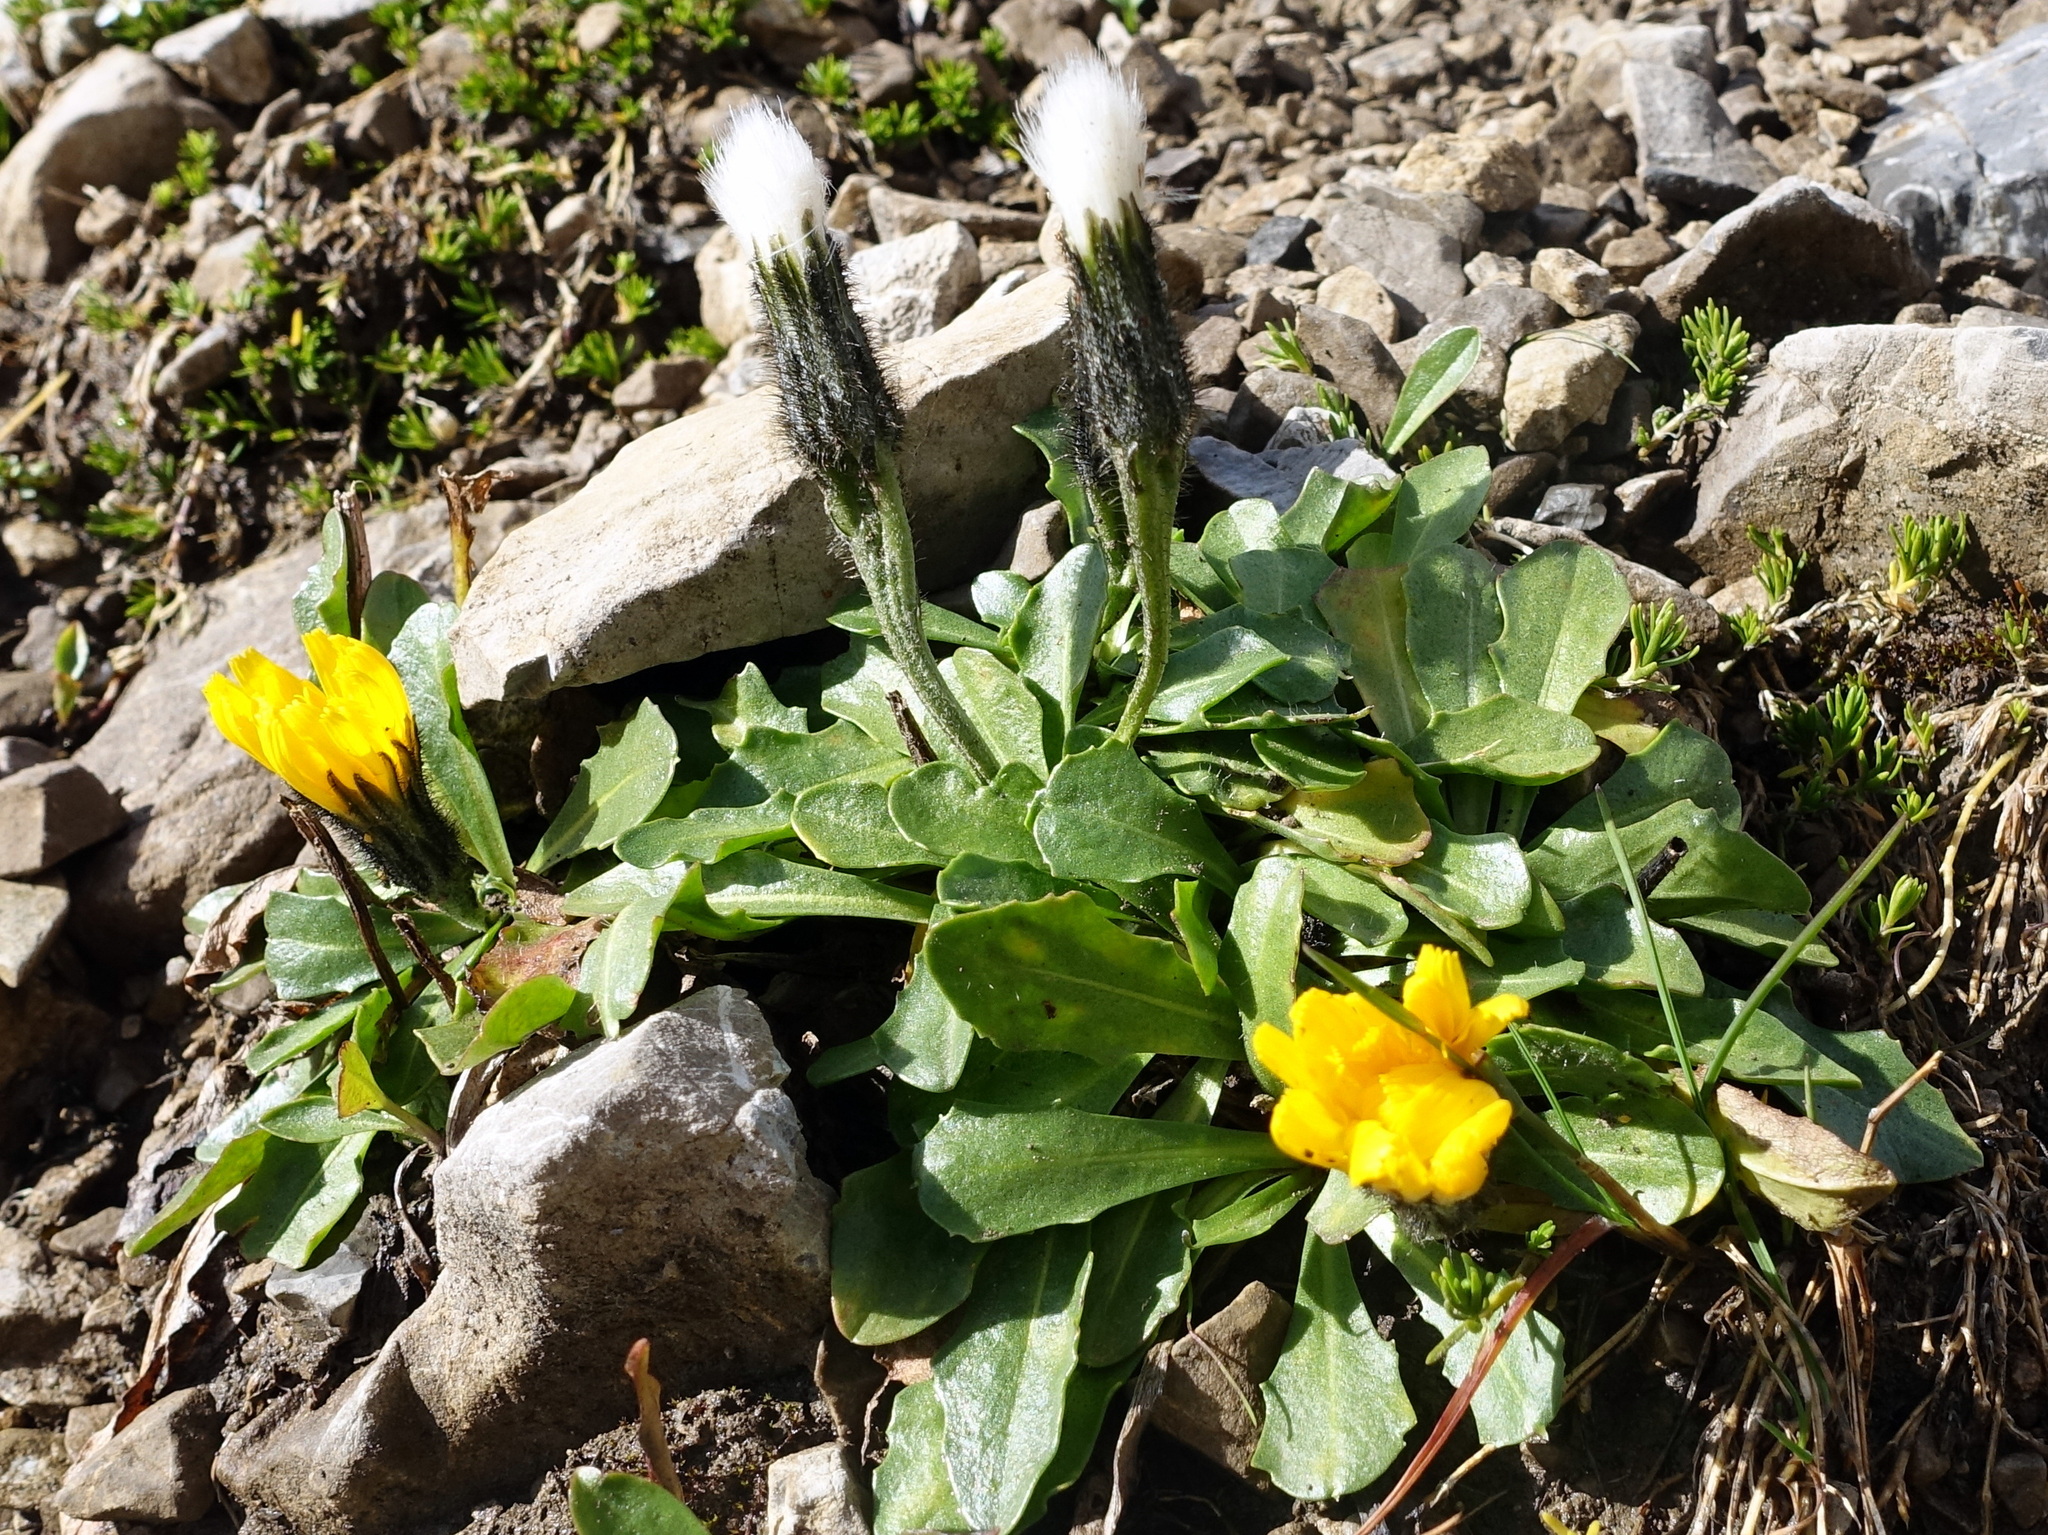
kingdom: Plantae
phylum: Tracheophyta
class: Magnoliopsida
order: Asterales
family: Asteraceae
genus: Scorzoneroides
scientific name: Scorzoneroides montana
